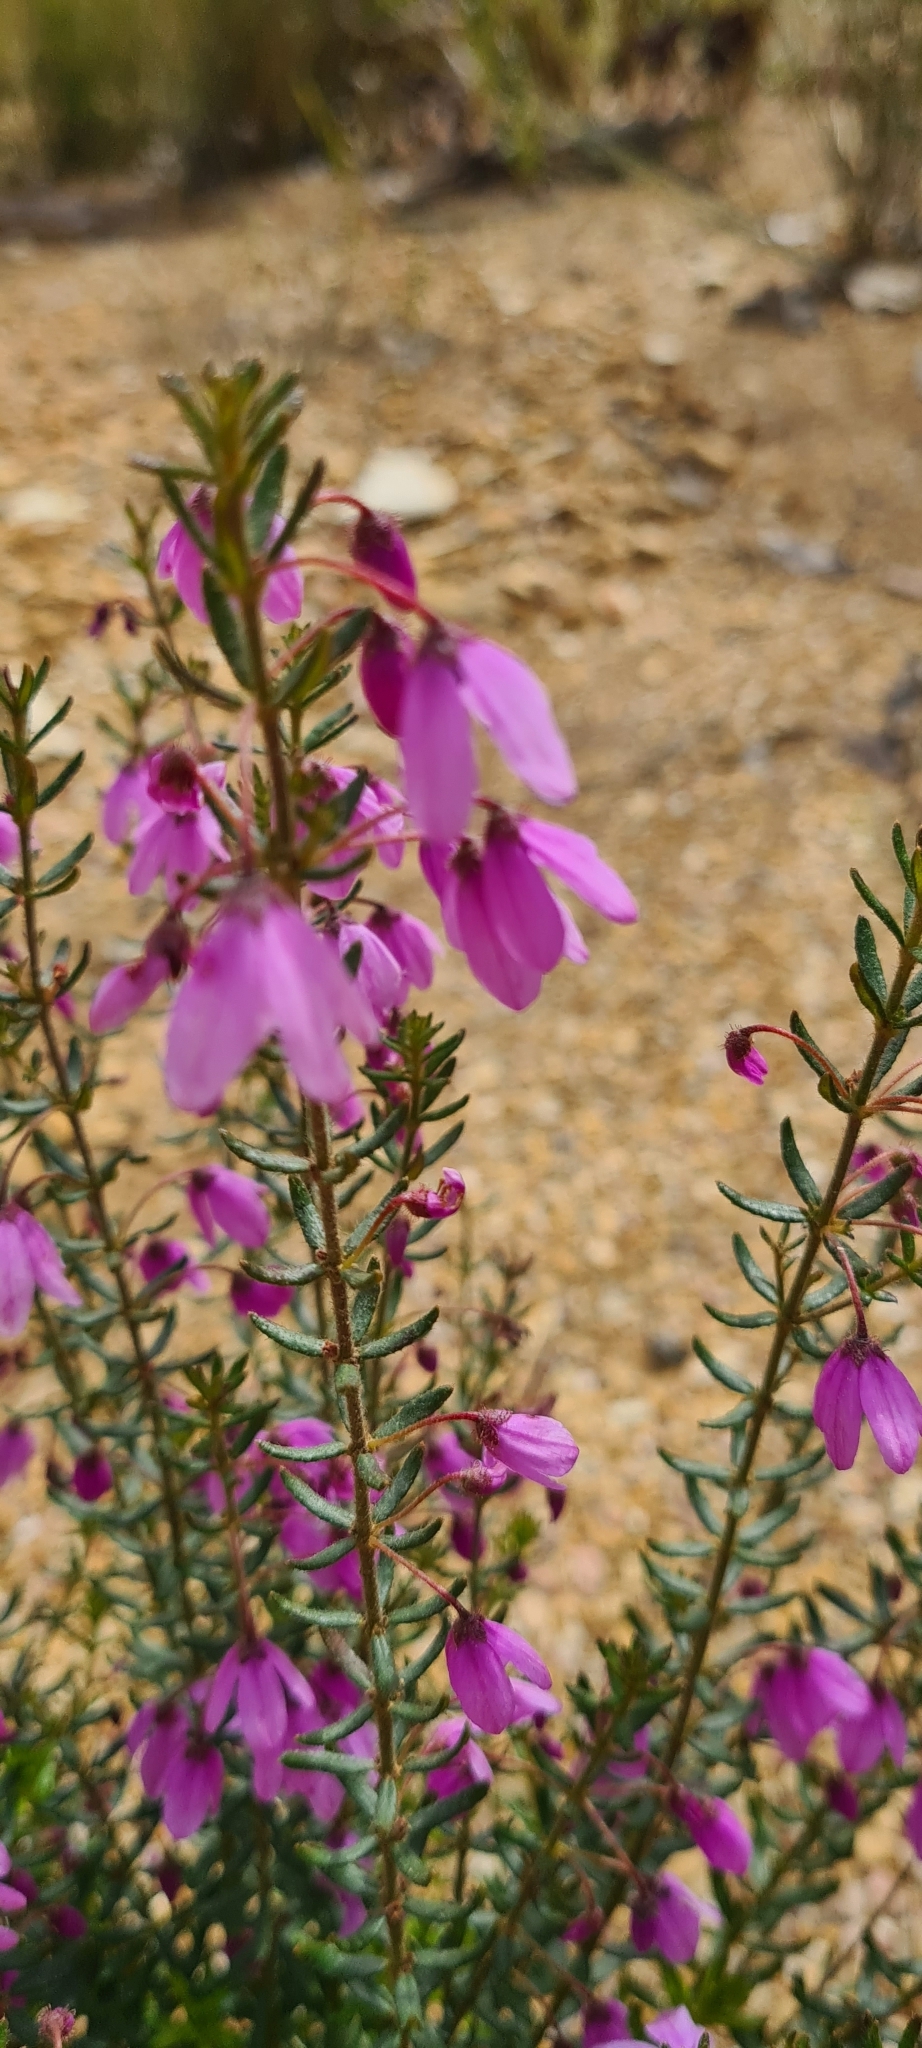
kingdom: Plantae
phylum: Tracheophyta
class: Magnoliopsida
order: Oxalidales
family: Elaeocarpaceae
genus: Tetratheca
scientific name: Tetratheca thymifolia
